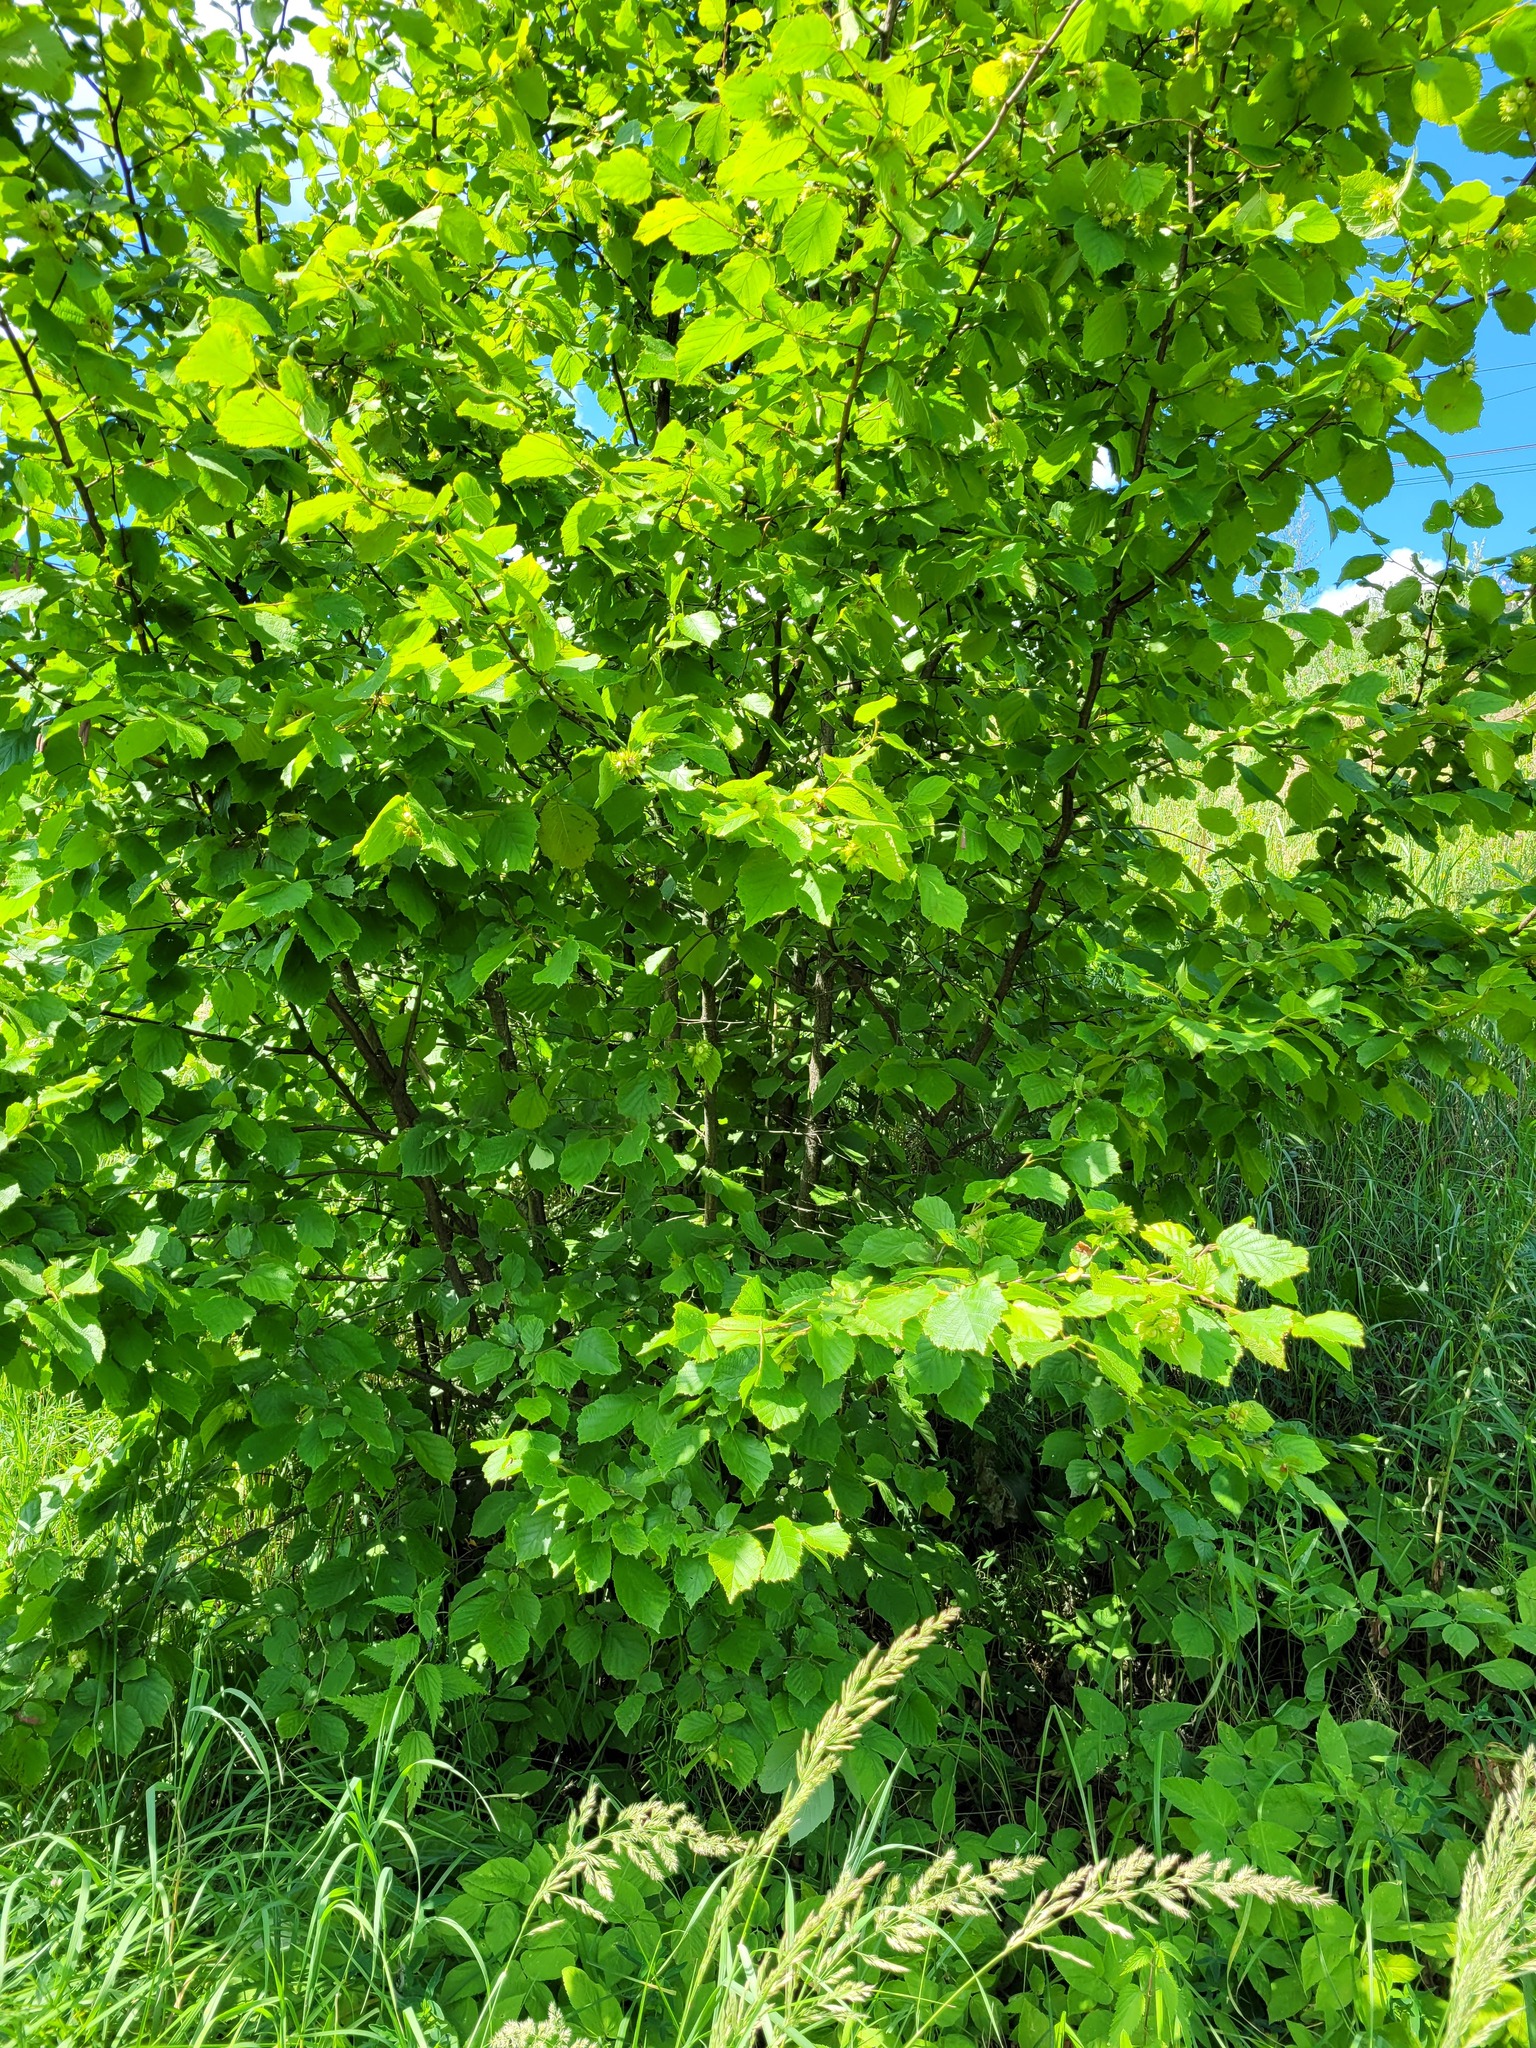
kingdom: Plantae
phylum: Tracheophyta
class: Magnoliopsida
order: Fagales
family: Betulaceae
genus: Corylus
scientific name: Corylus avellana
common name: European hazel
